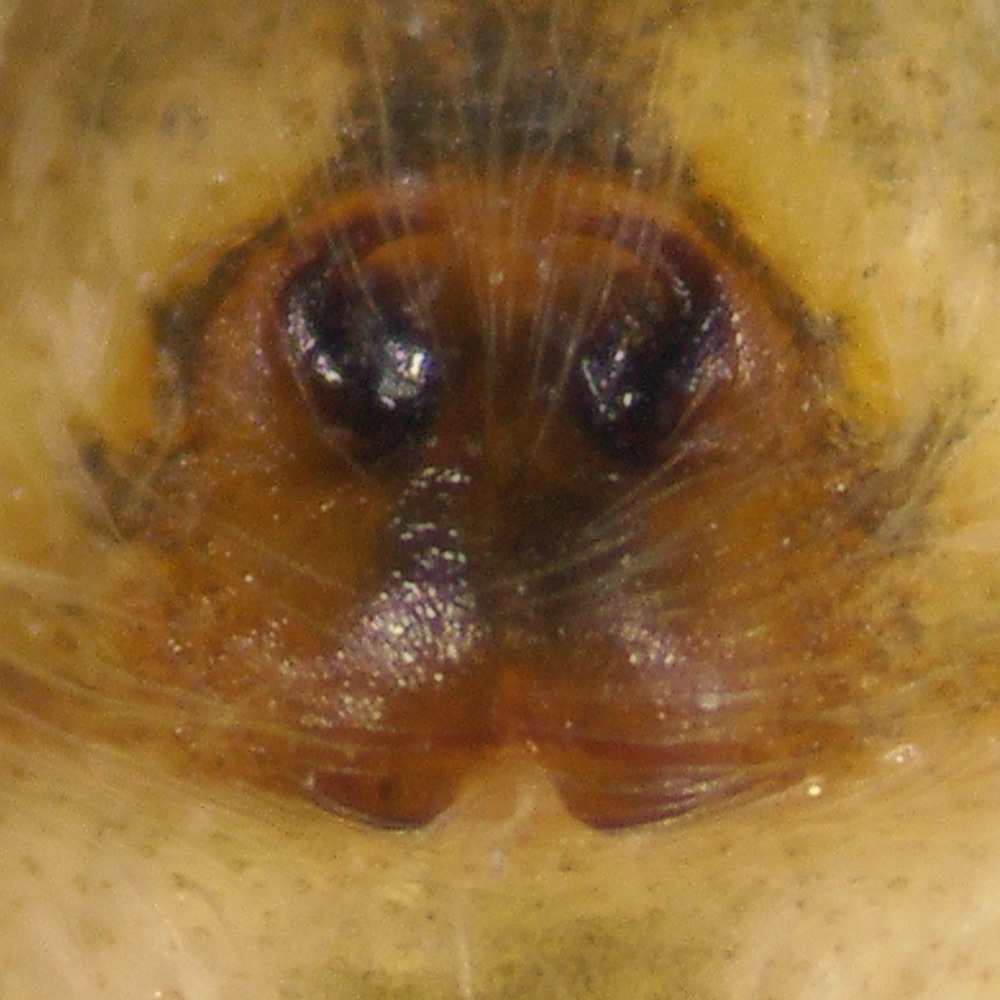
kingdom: Animalia
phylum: Arthropoda
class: Arachnida
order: Araneae
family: Salticidae
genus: Pelegrina
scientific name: Pelegrina variegata
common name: Jumping spiders
